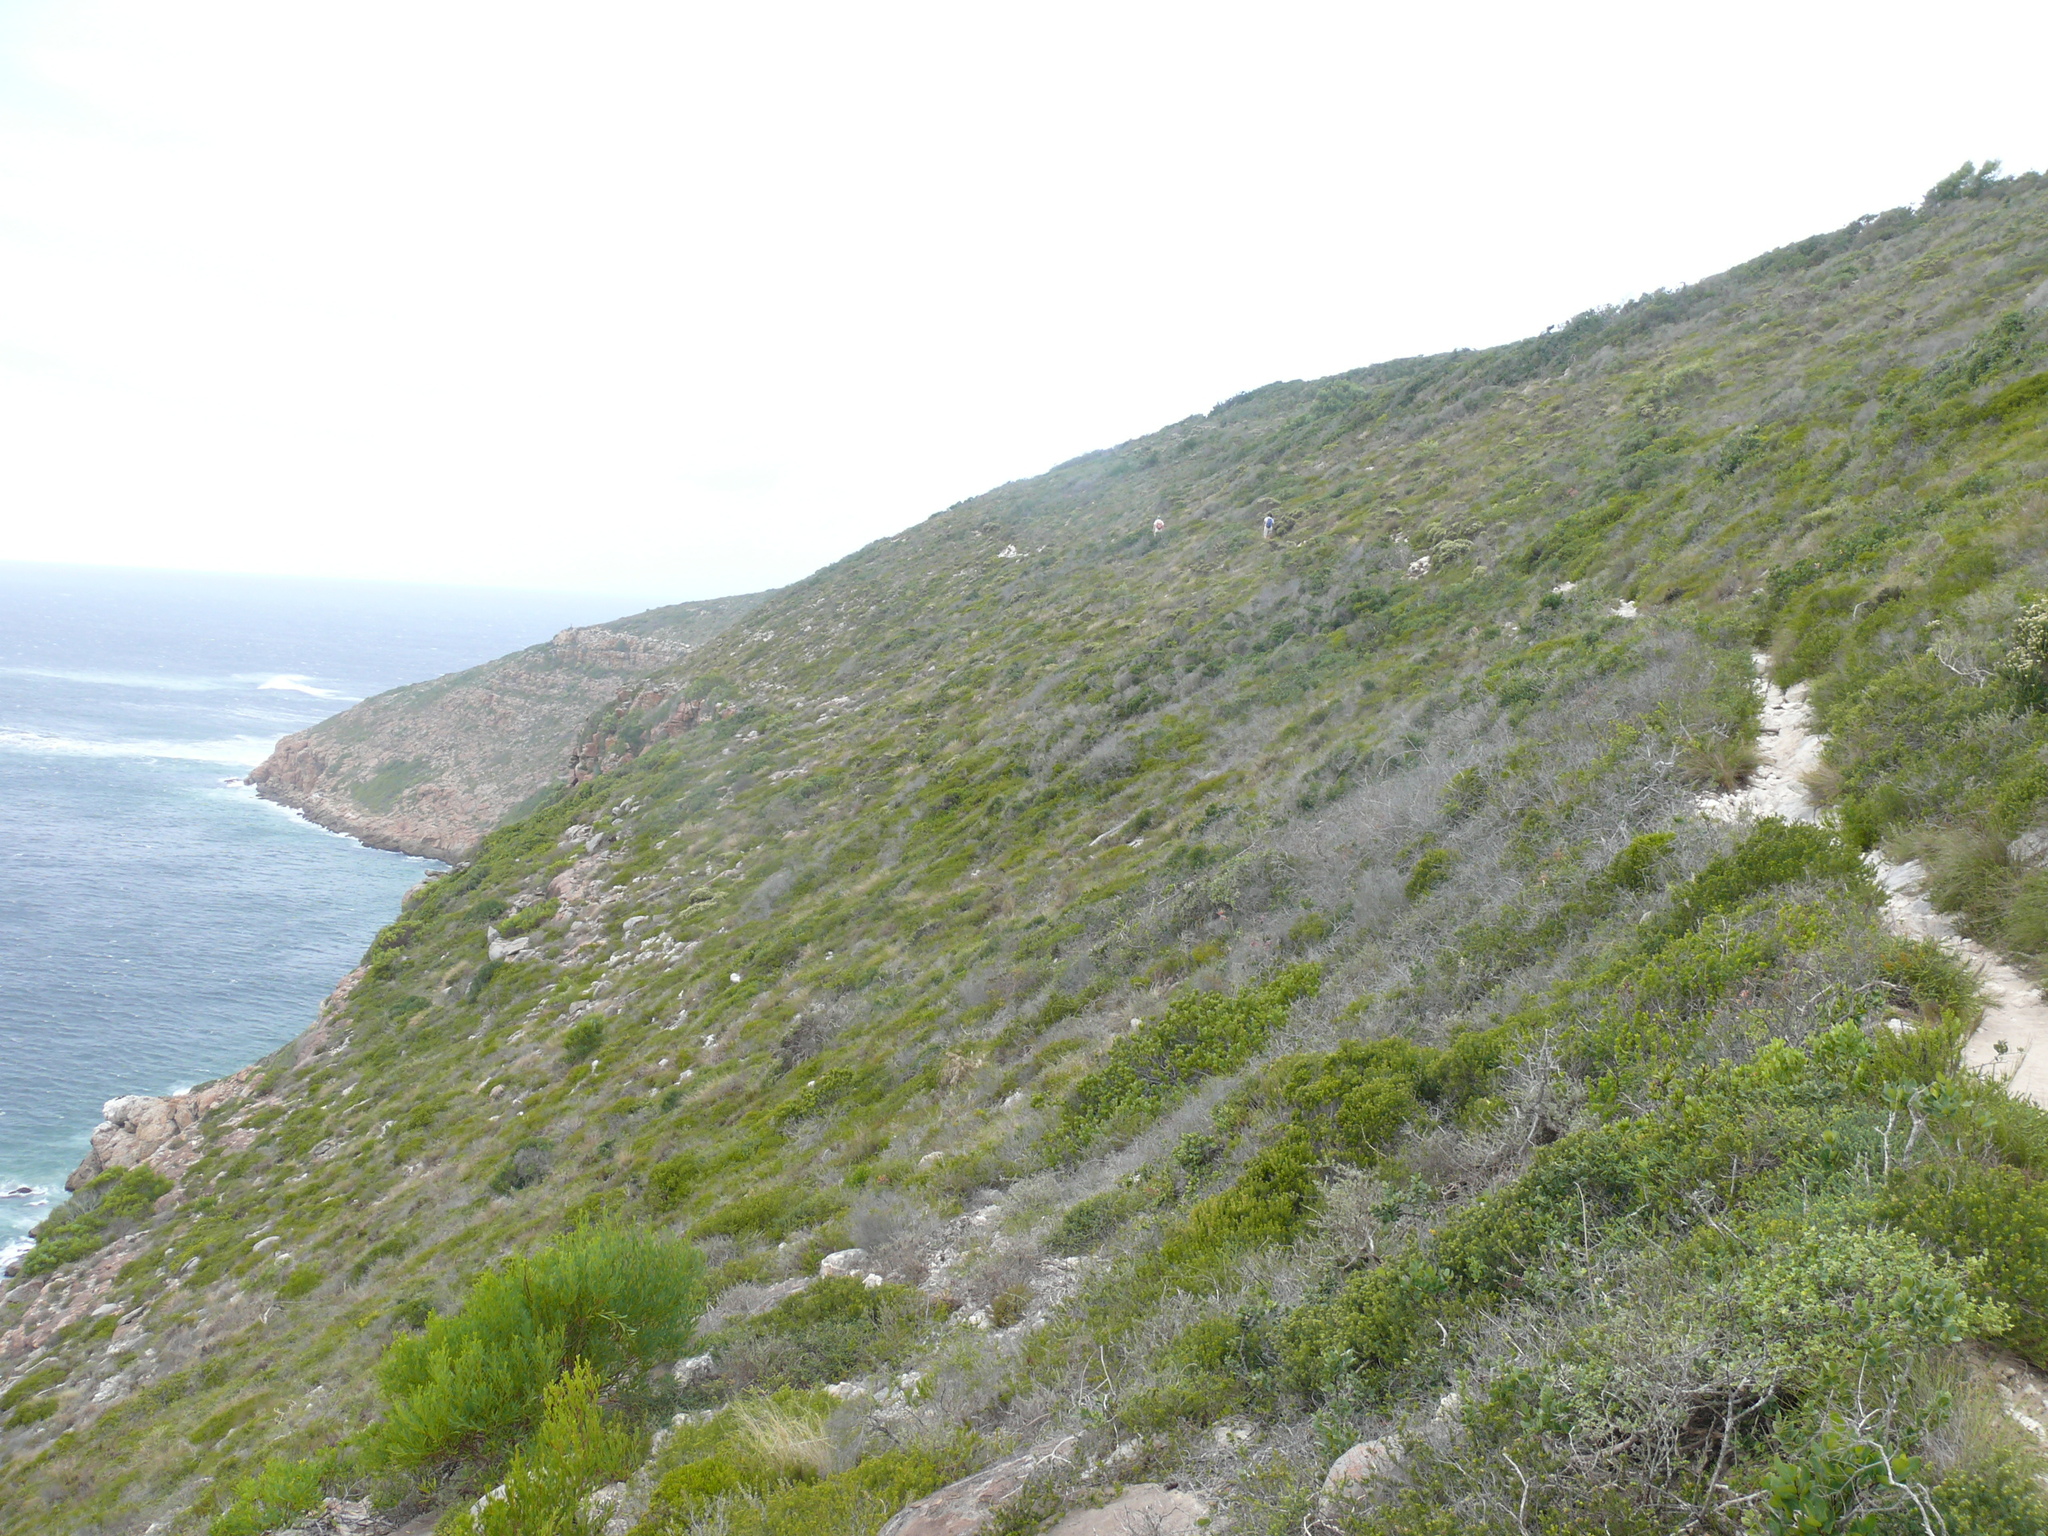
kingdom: Plantae
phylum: Tracheophyta
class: Magnoliopsida
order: Rosales
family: Rhamnaceae
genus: Phylica
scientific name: Phylica axillaris
